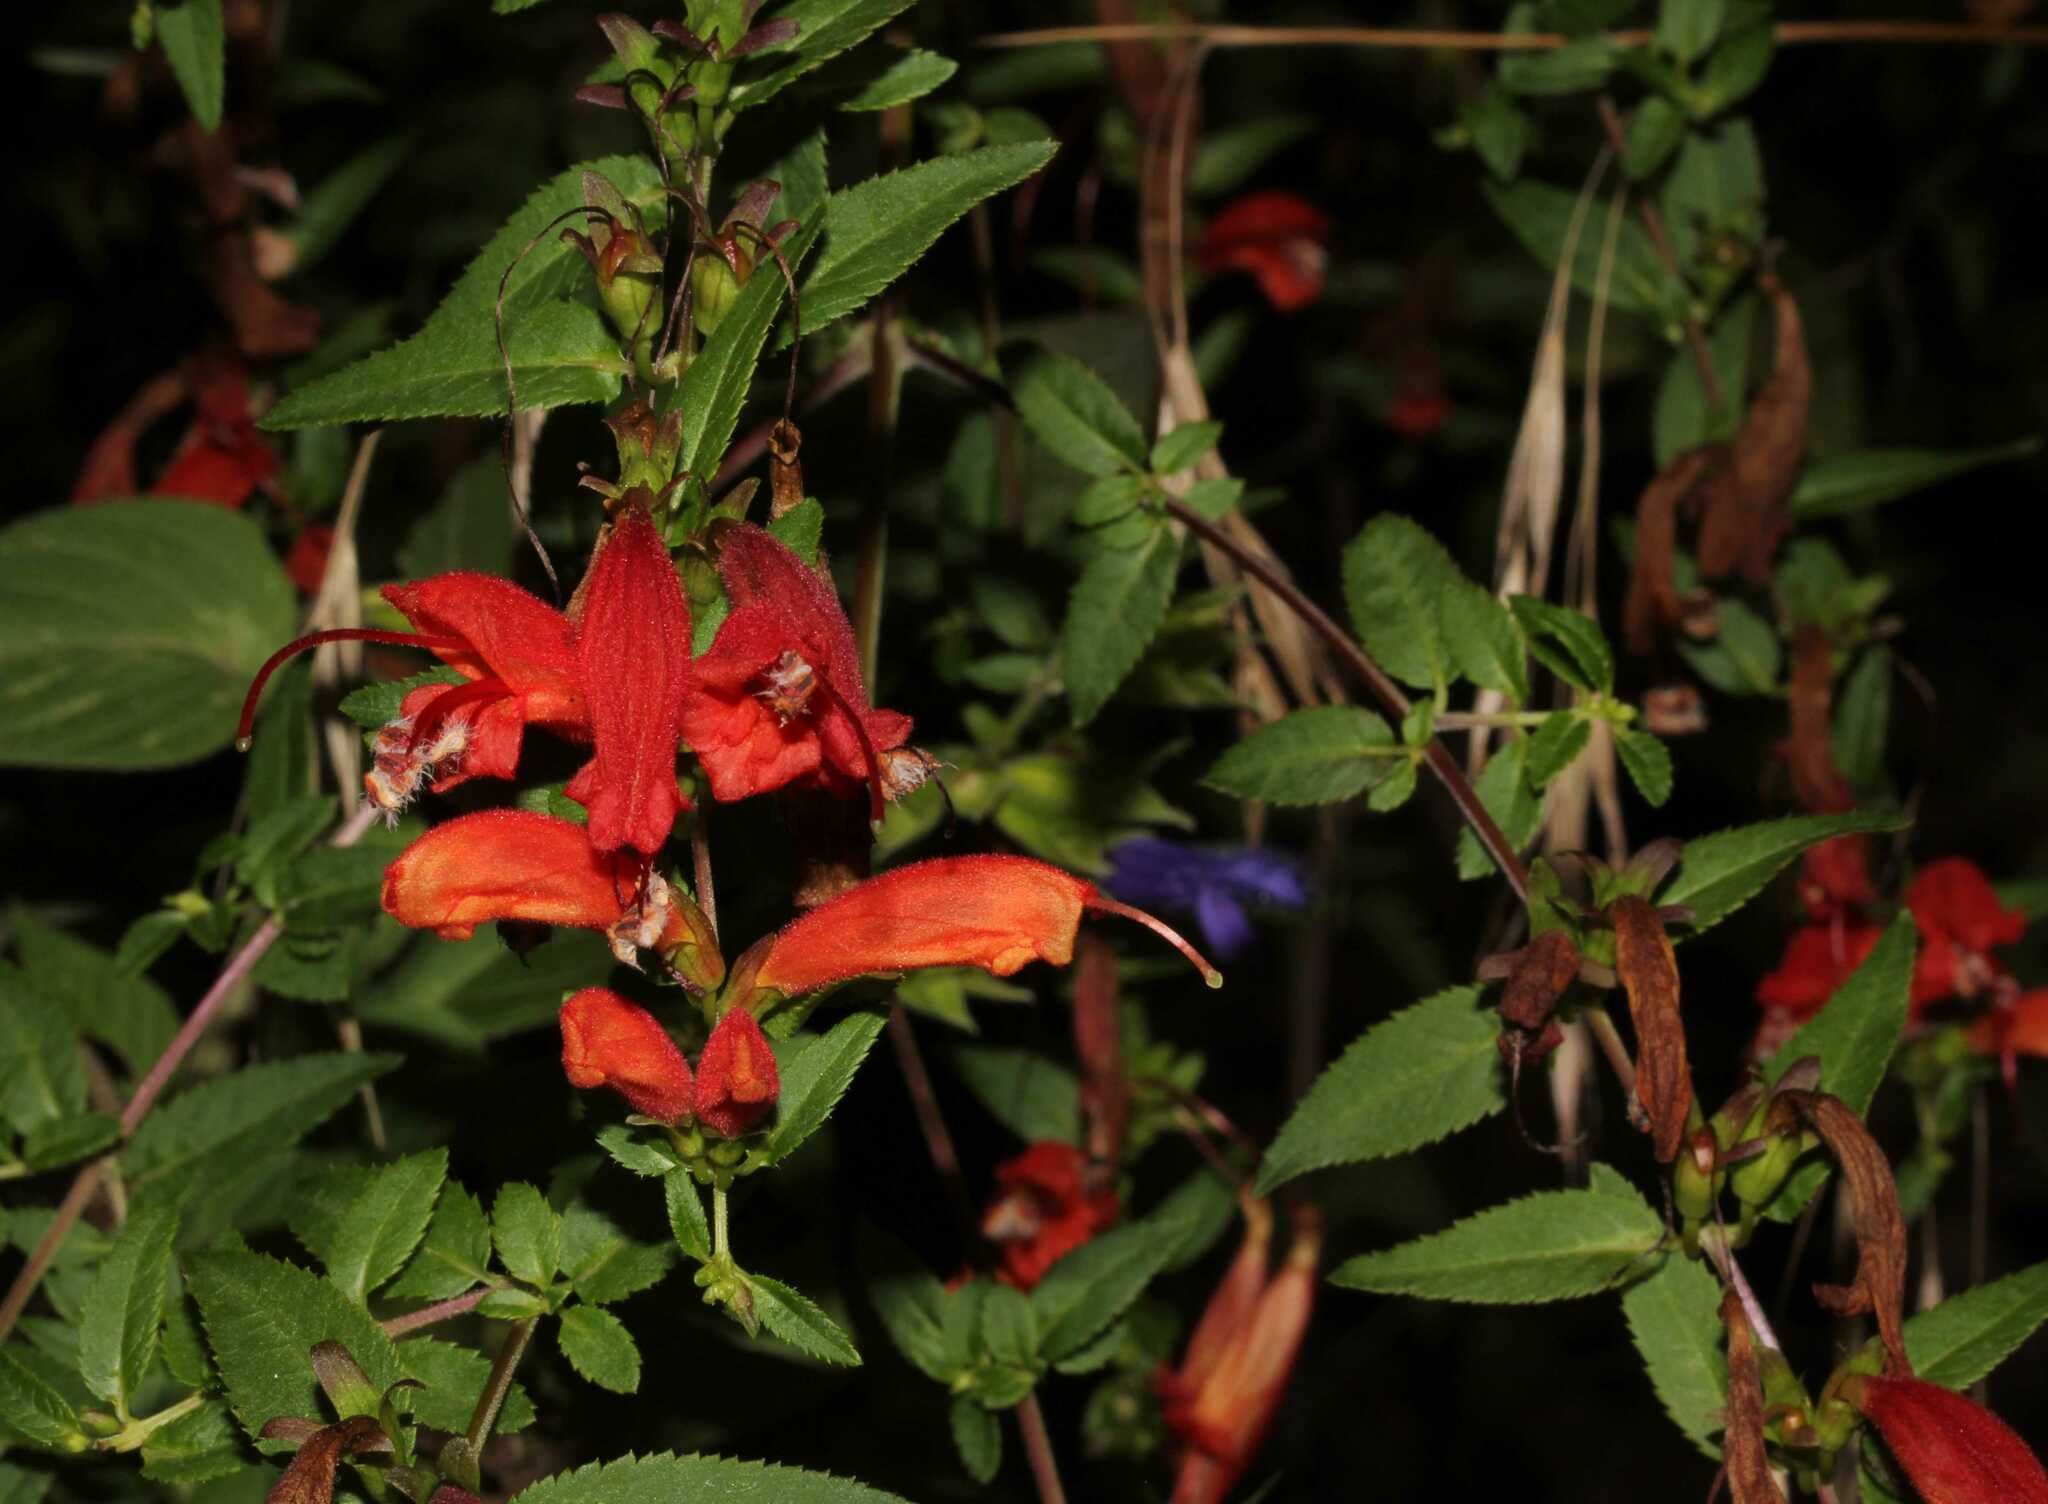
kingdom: Plantae
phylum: Tracheophyta
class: Magnoliopsida
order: Lamiales
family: Orobanchaceae
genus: Lamourouxia
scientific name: Lamourouxia xalapensis
